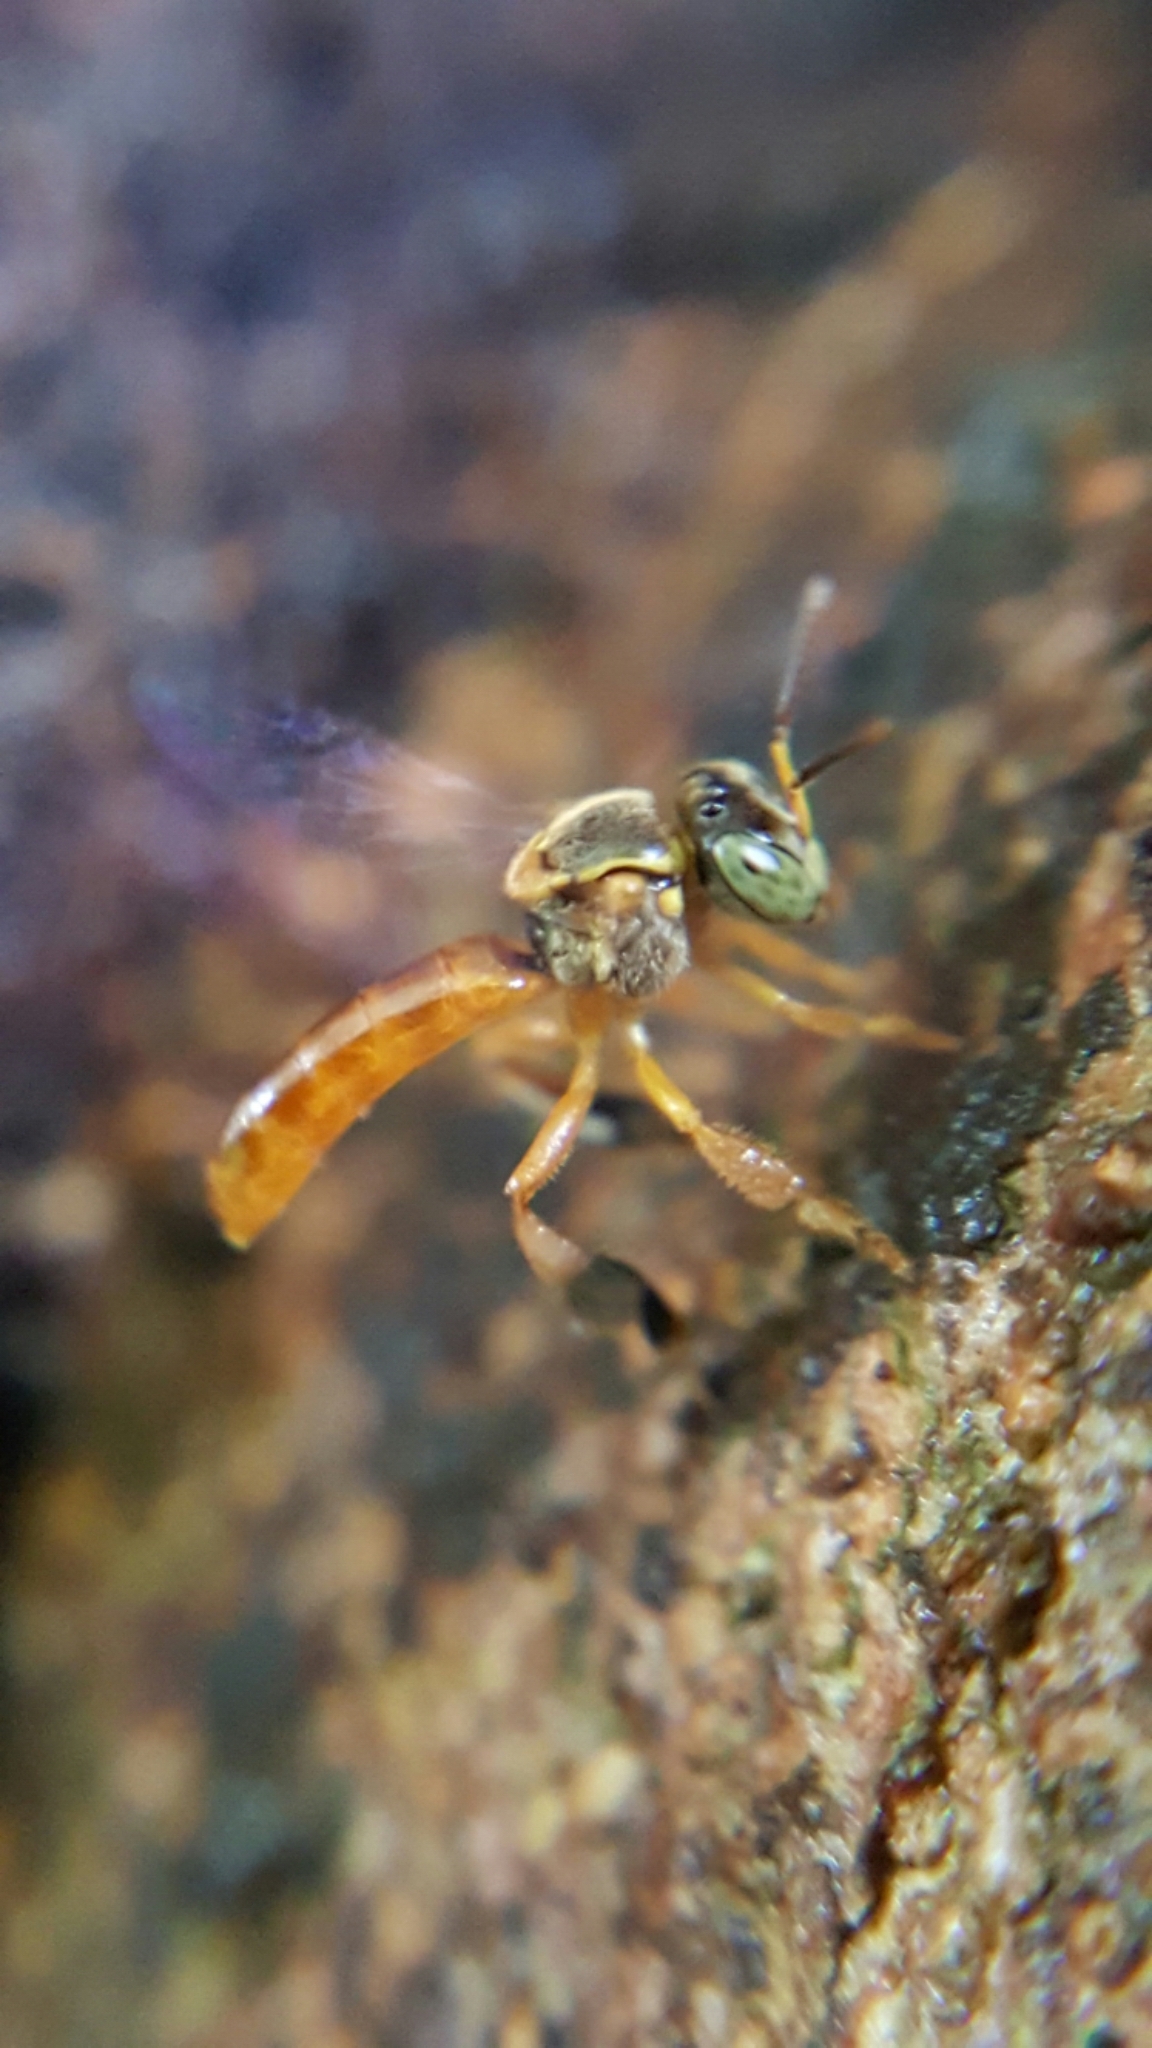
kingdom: Animalia
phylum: Arthropoda
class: Insecta
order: Hymenoptera
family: Apidae
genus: Tetragonisca
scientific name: Tetragonisca angustula
